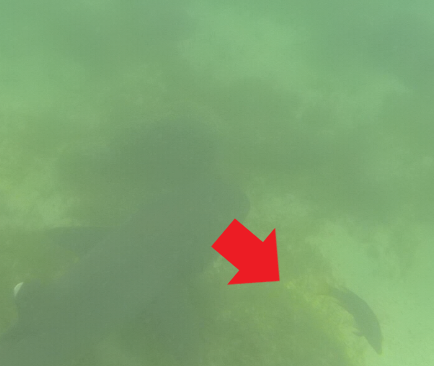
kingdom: Animalia
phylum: Chordata
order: Perciformes
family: Labridae
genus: Bodianus
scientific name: Bodianus diplotaenia
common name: Mexican hogfish
